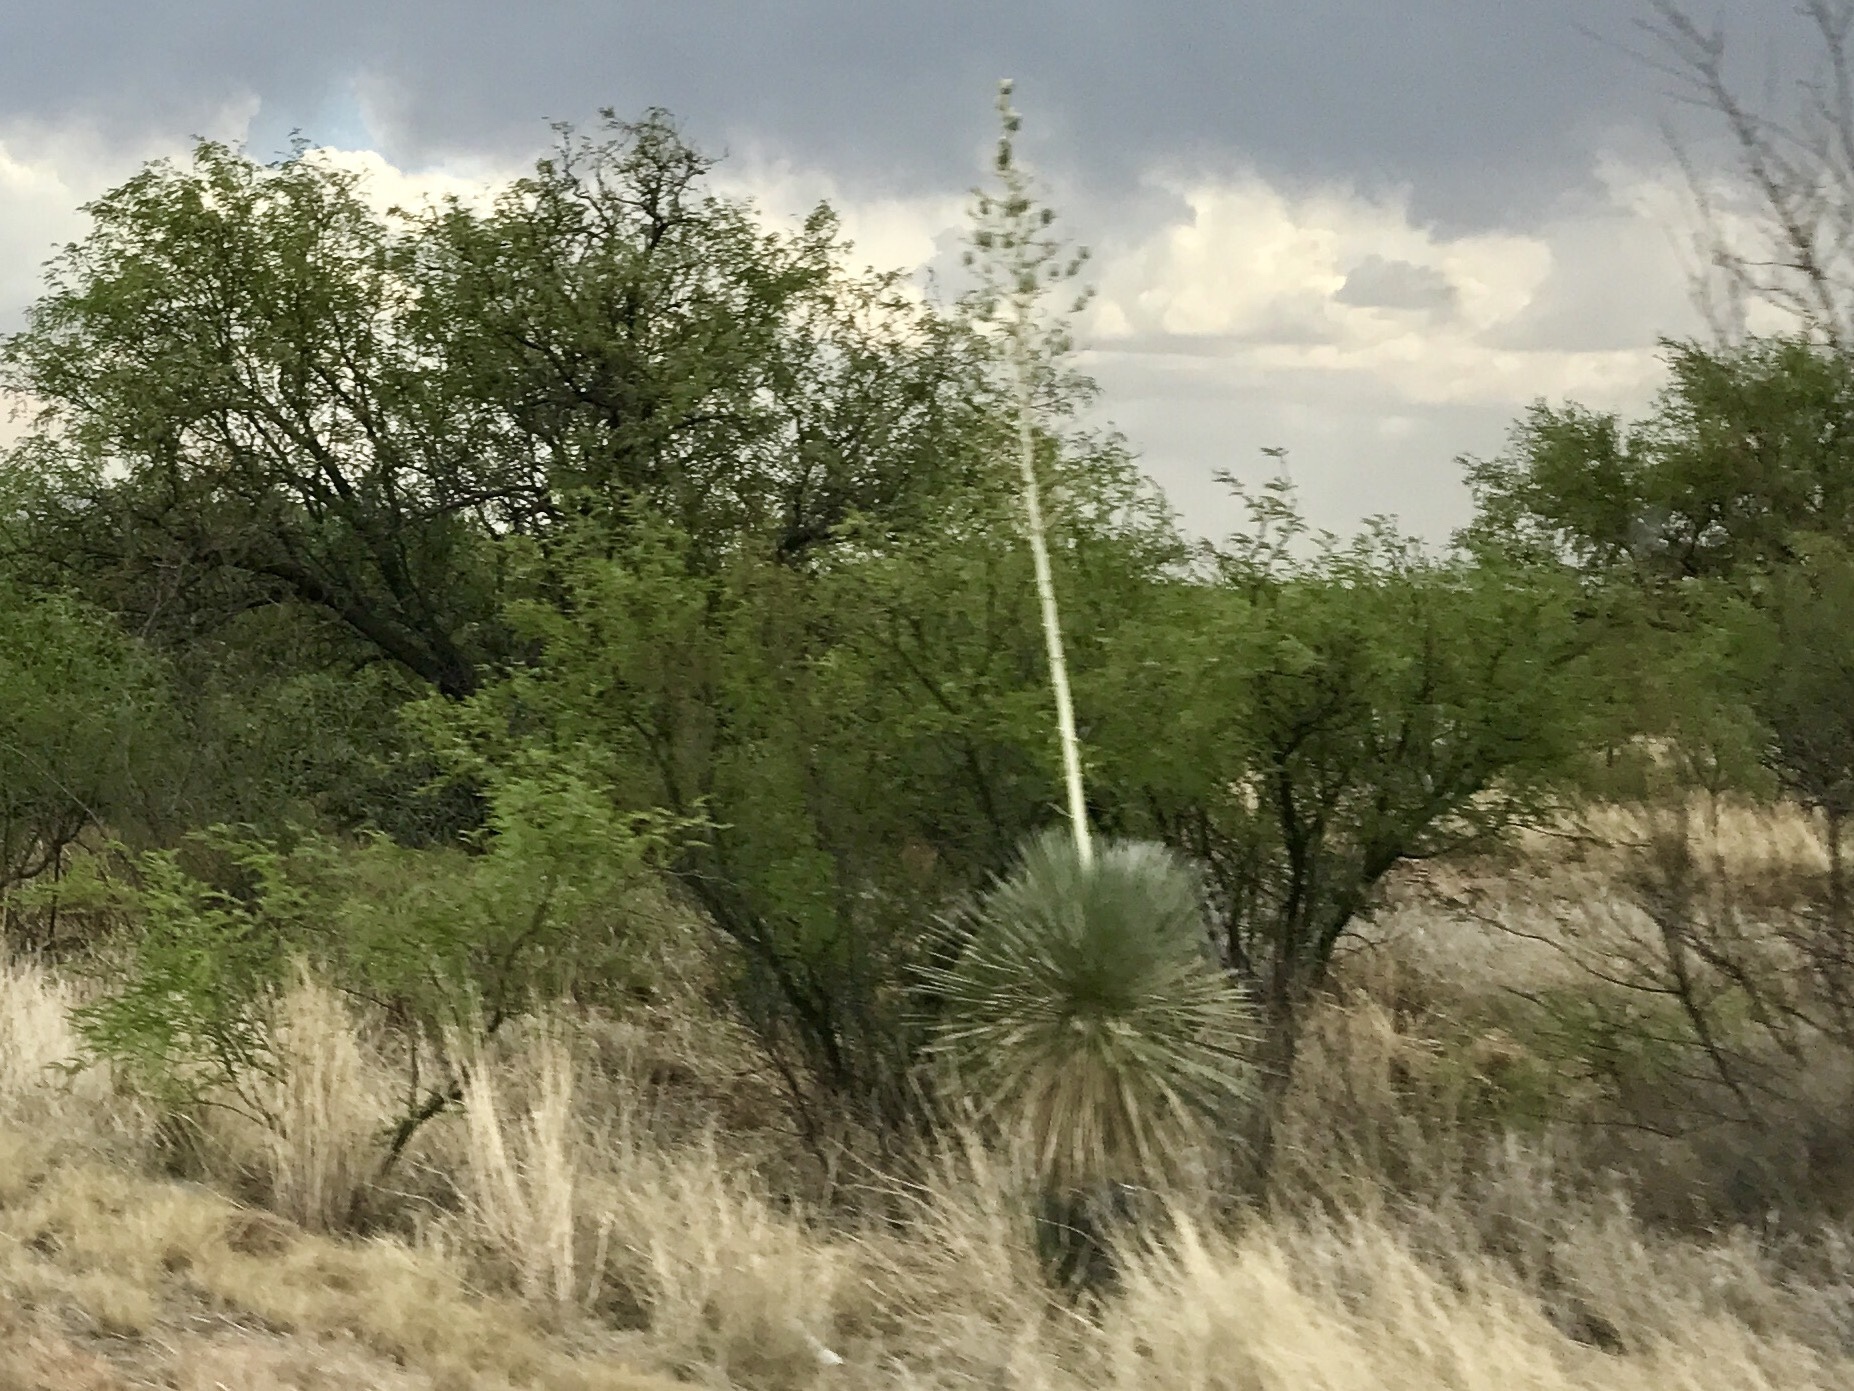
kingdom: Plantae
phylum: Tracheophyta
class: Liliopsida
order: Asparagales
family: Asparagaceae
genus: Yucca
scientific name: Yucca elata
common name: Palmella
